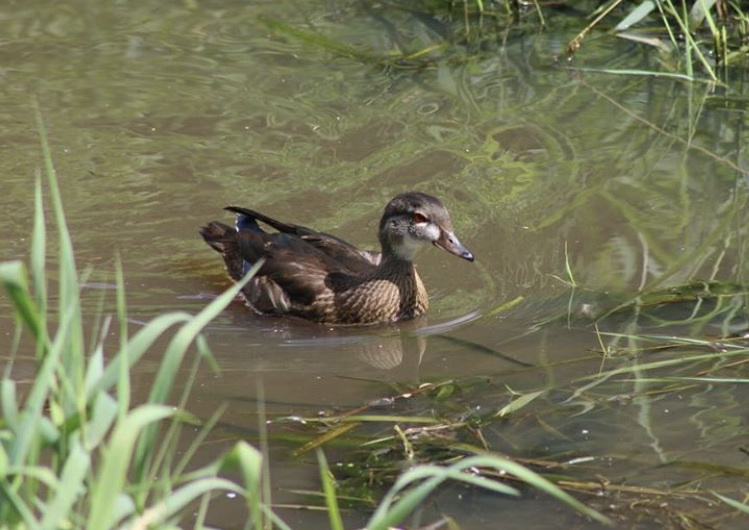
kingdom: Animalia
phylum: Chordata
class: Aves
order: Anseriformes
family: Anatidae
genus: Aix
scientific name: Aix sponsa
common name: Wood duck
